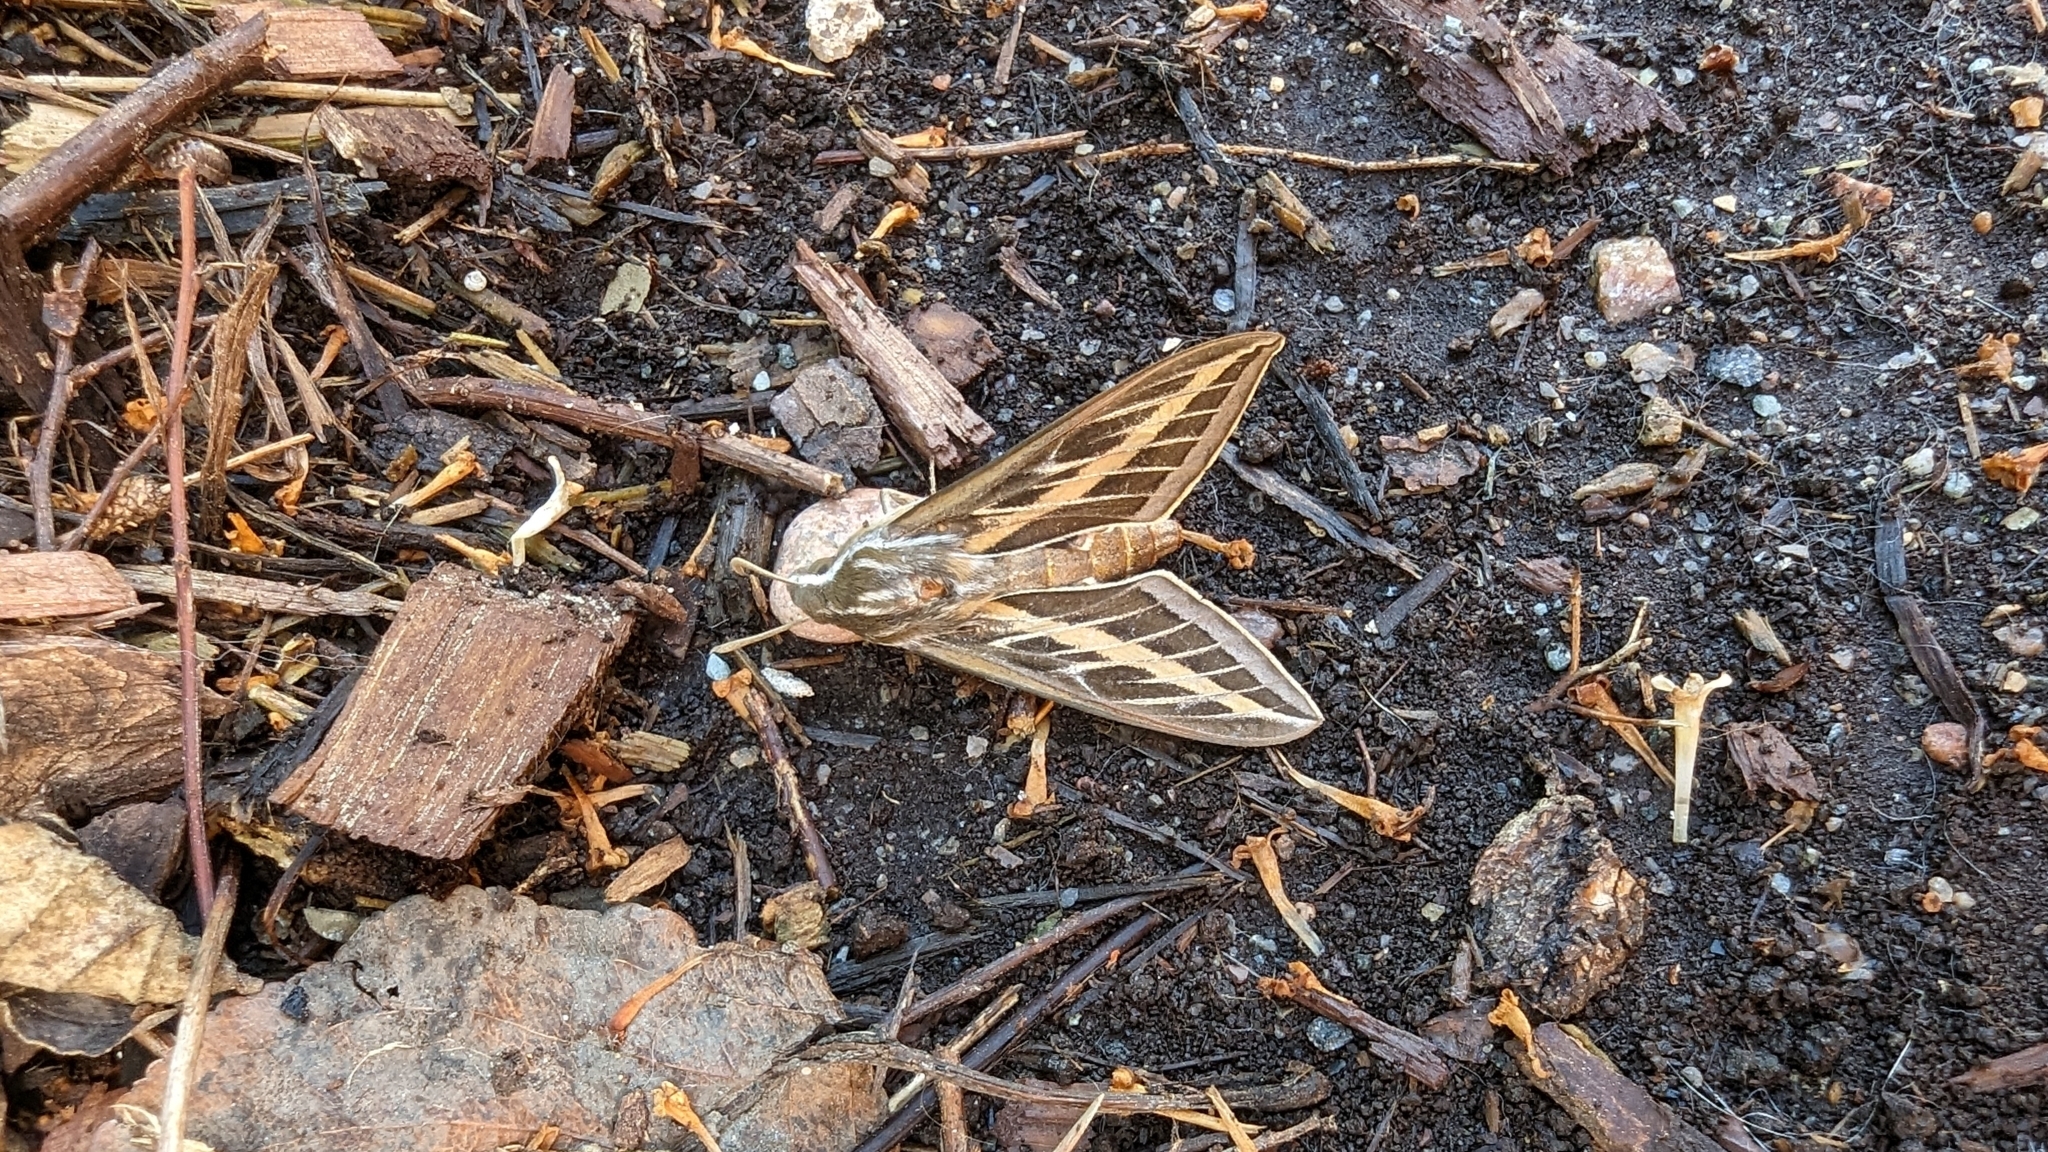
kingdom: Animalia
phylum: Arthropoda
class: Insecta
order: Lepidoptera
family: Sphingidae
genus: Hyles
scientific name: Hyles lineata
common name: White-lined sphinx
